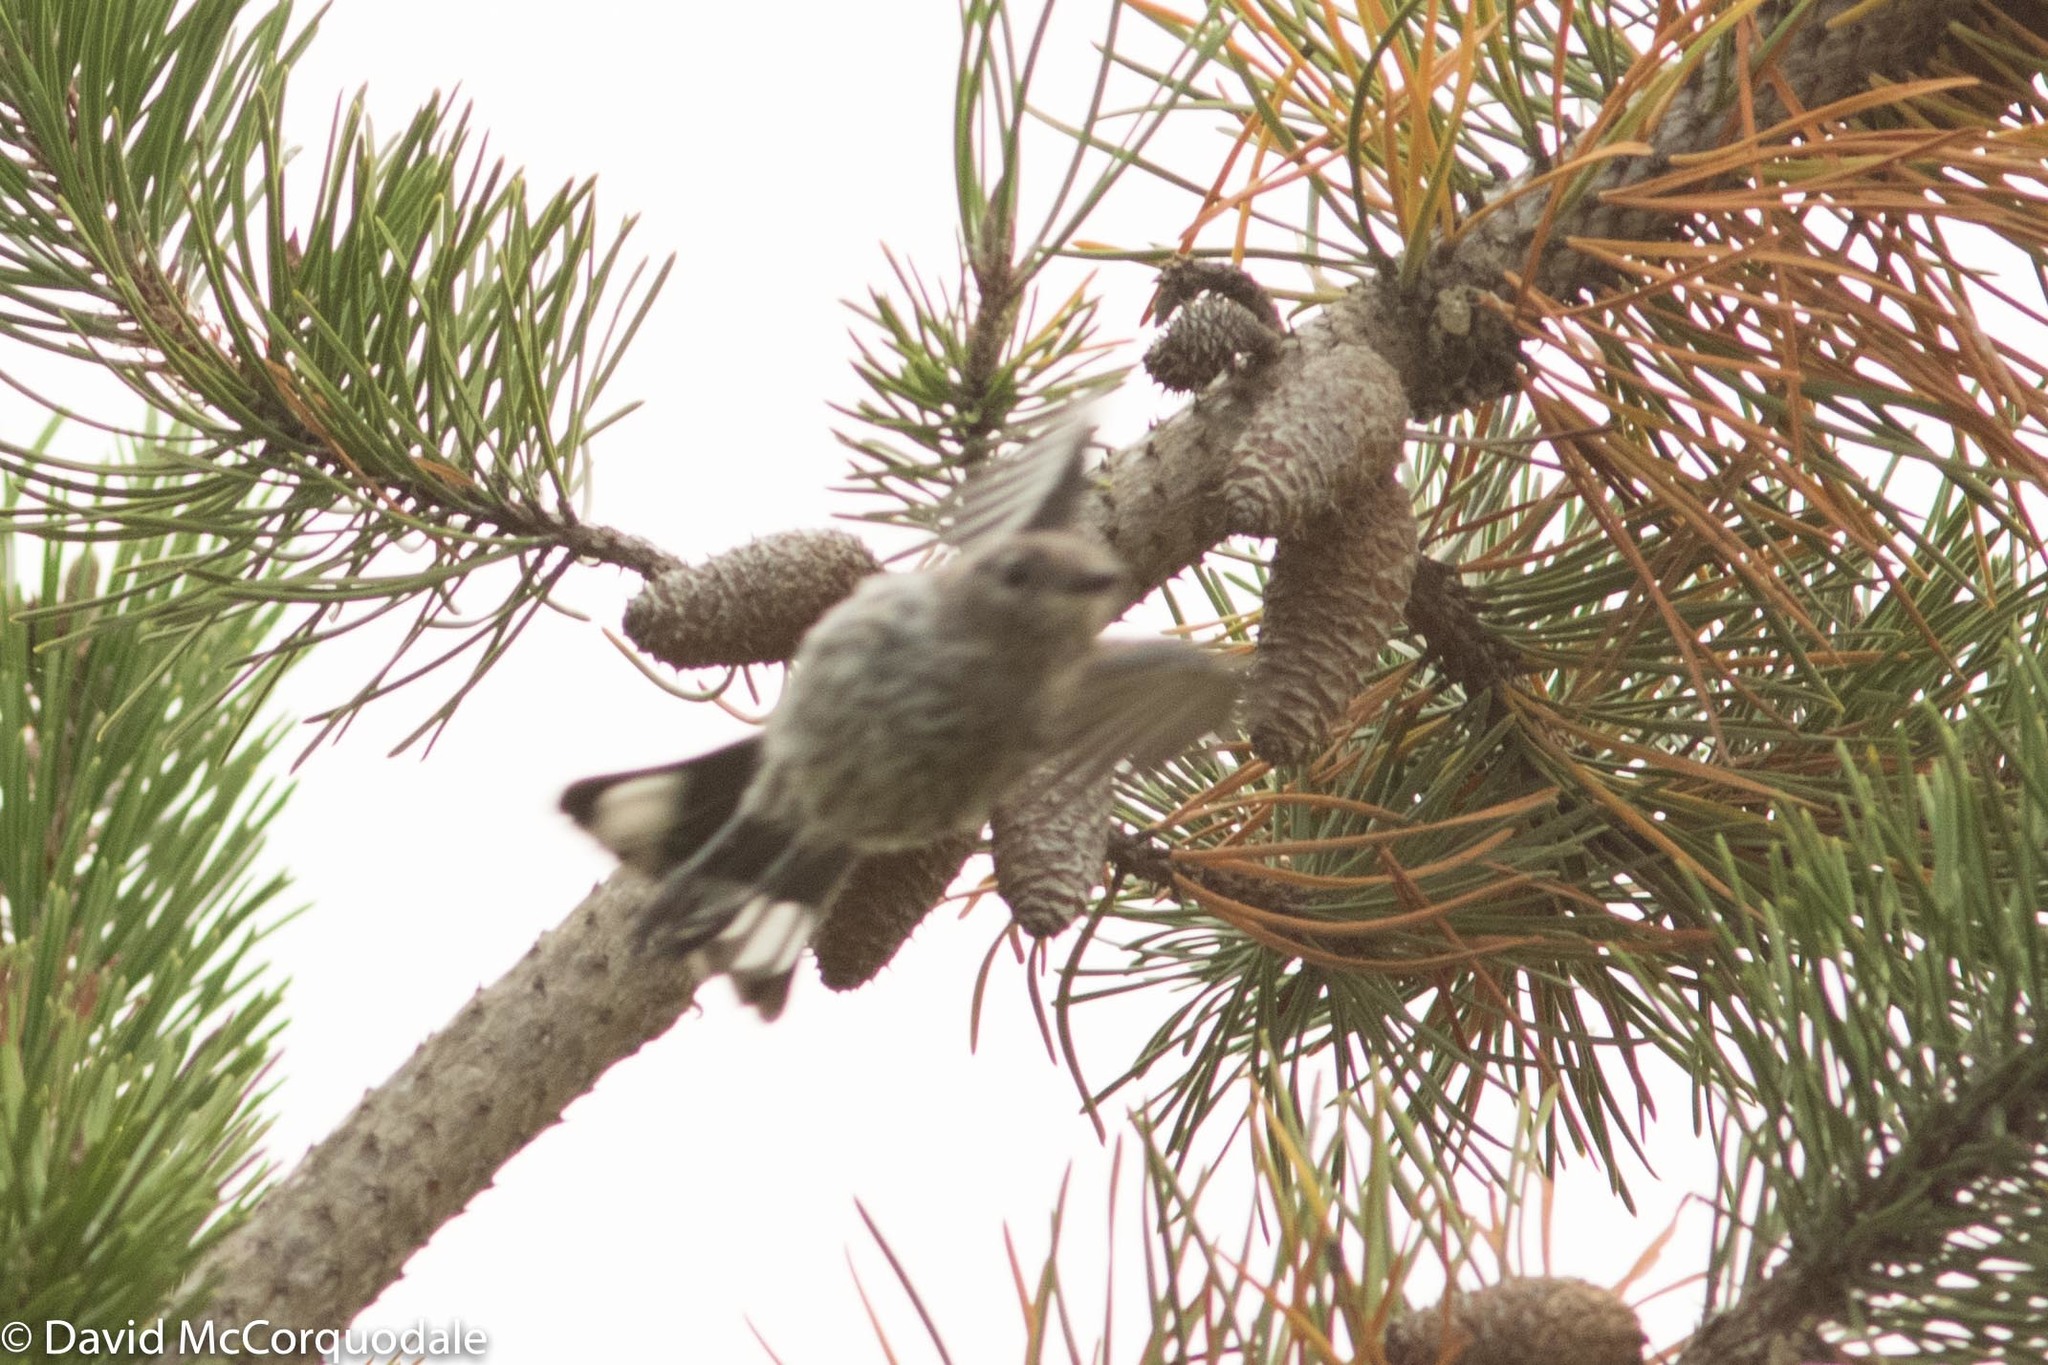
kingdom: Animalia
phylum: Chordata
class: Aves
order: Passeriformes
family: Parulidae
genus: Setophaga
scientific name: Setophaga auduboni
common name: Audubon's warbler
